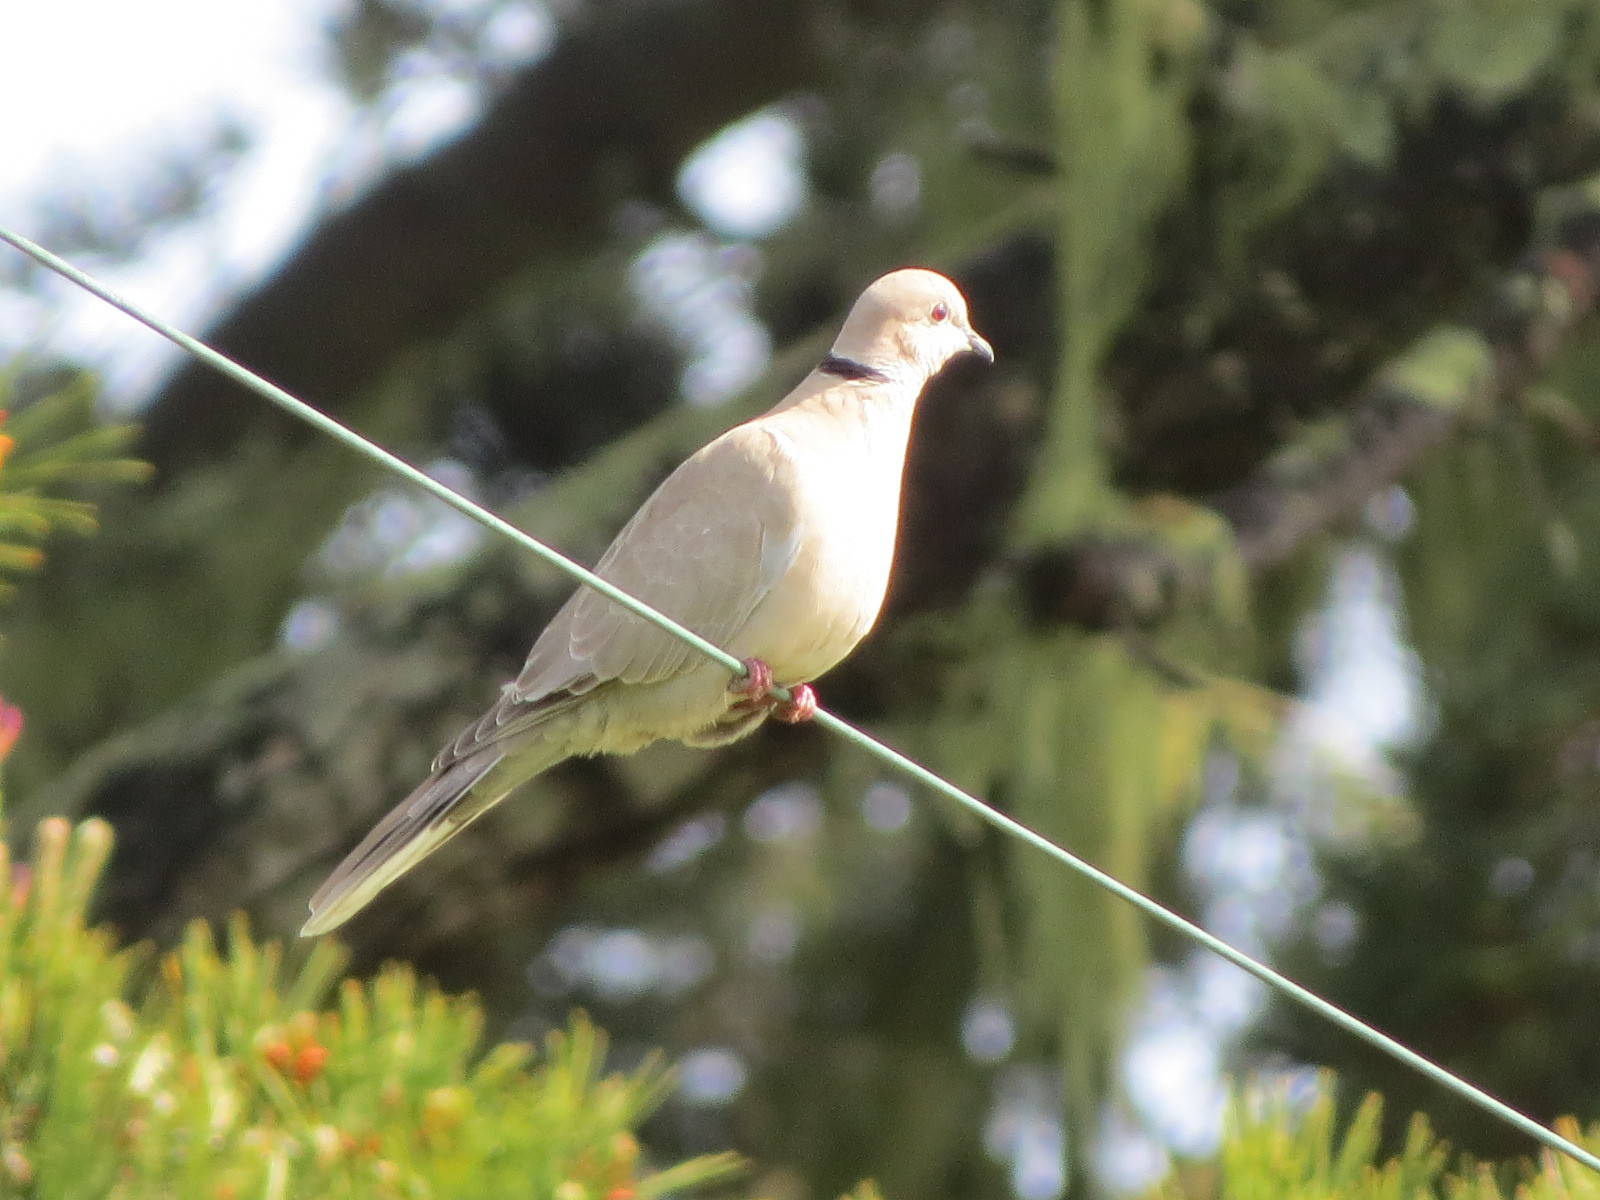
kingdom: Animalia
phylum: Chordata
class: Aves
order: Columbiformes
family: Columbidae
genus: Streptopelia
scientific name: Streptopelia decaocto
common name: Eurasian collared dove
